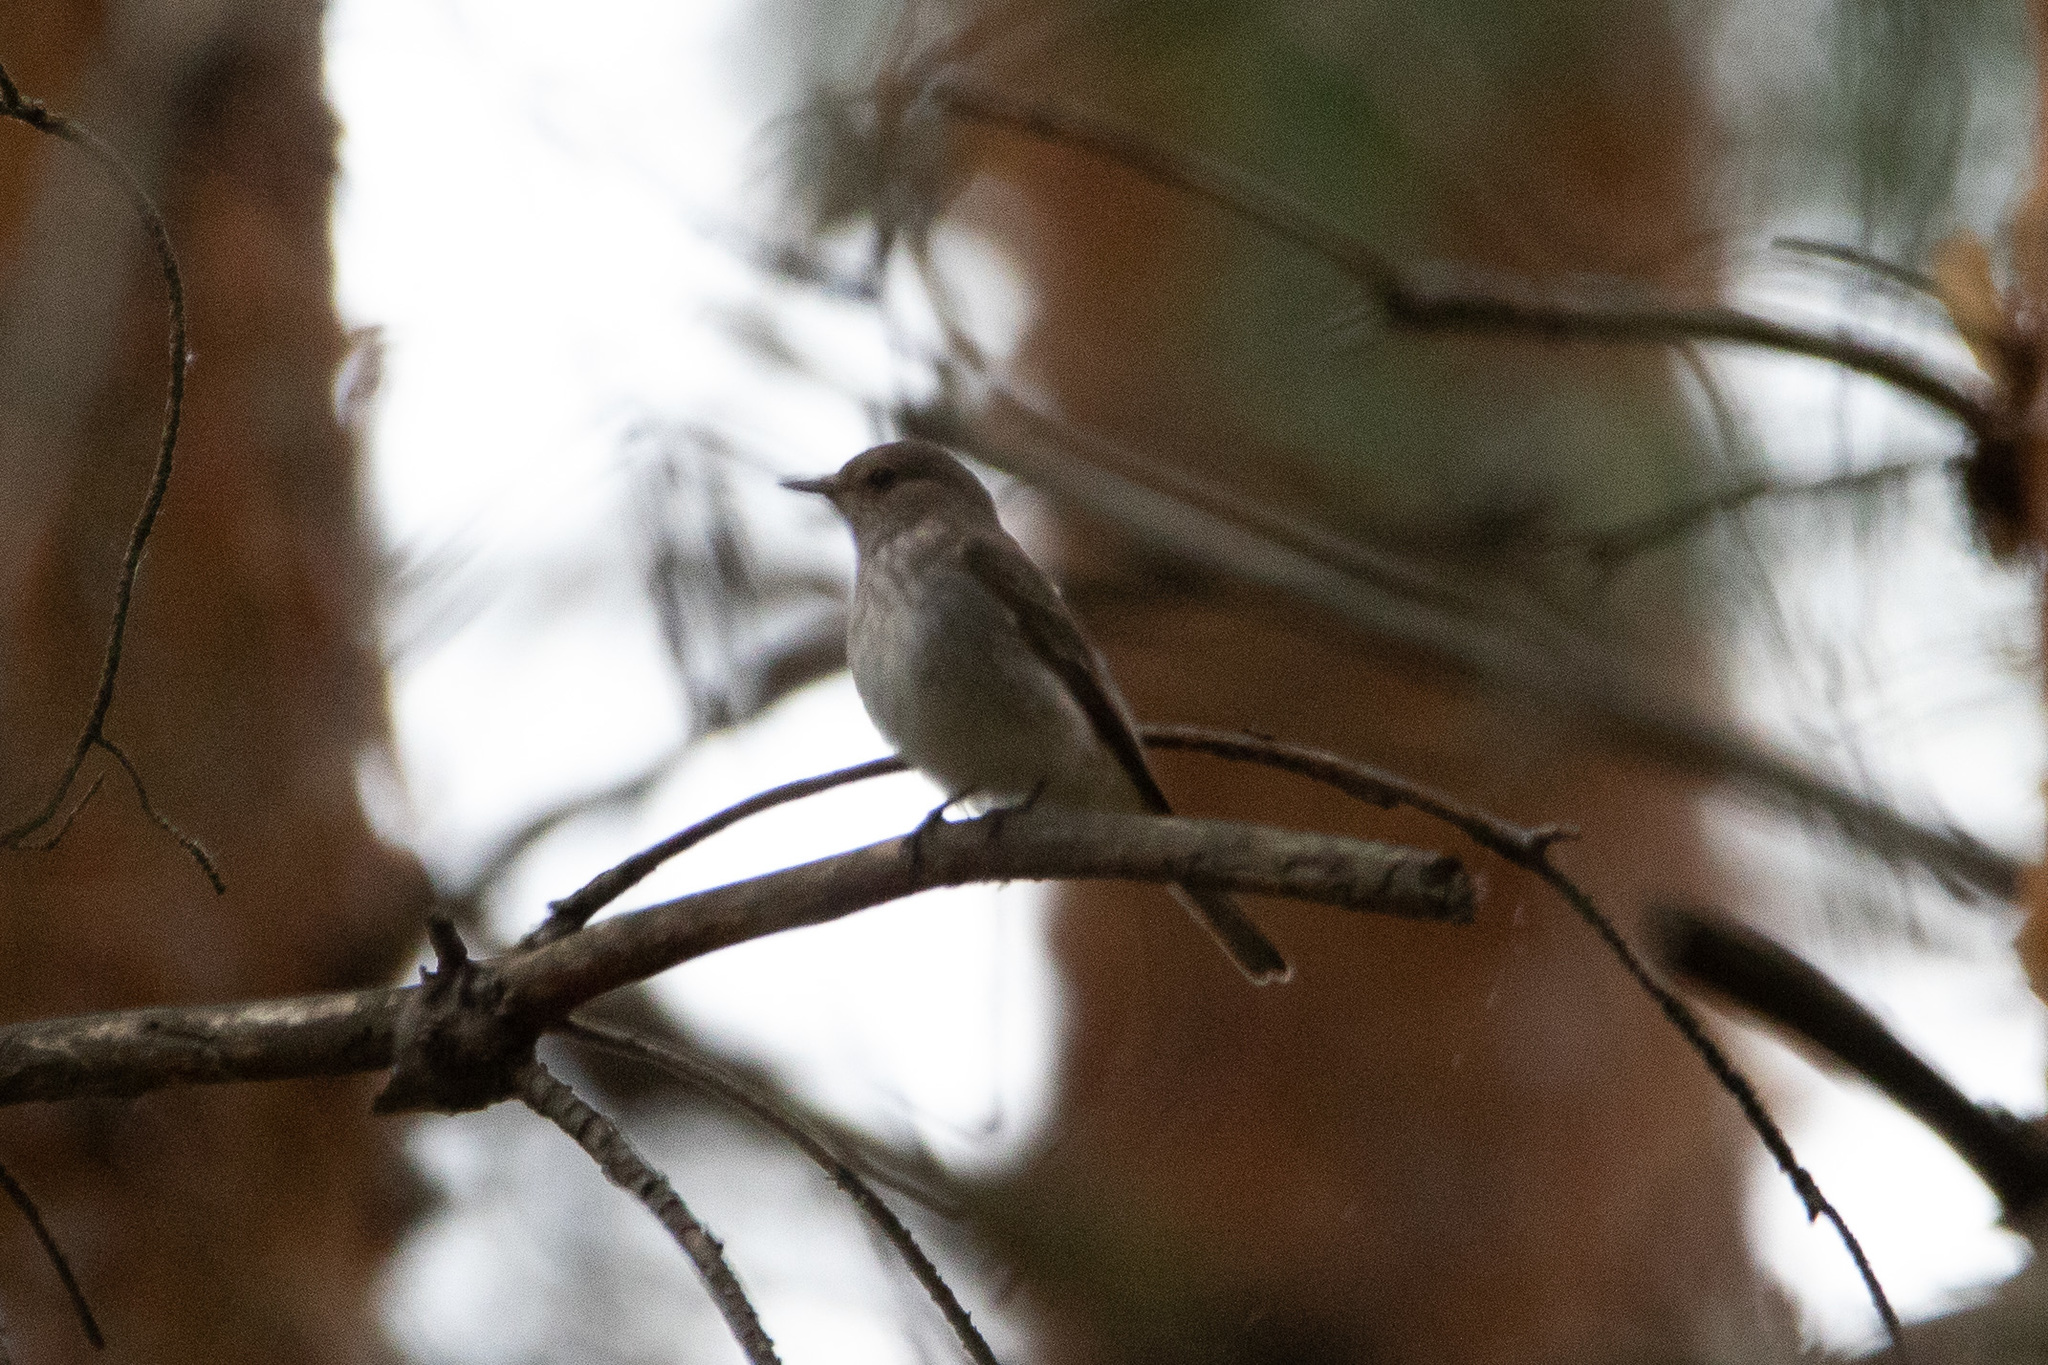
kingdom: Animalia
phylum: Chordata
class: Aves
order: Passeriformes
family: Muscicapidae
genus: Muscicapa
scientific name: Muscicapa striata
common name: Spotted flycatcher
